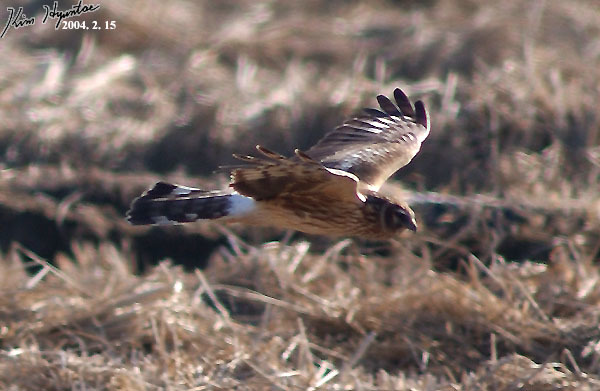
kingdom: Animalia
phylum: Chordata
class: Aves
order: Accipitriformes
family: Accipitridae
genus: Circus
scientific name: Circus cyaneus
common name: Hen harrier
